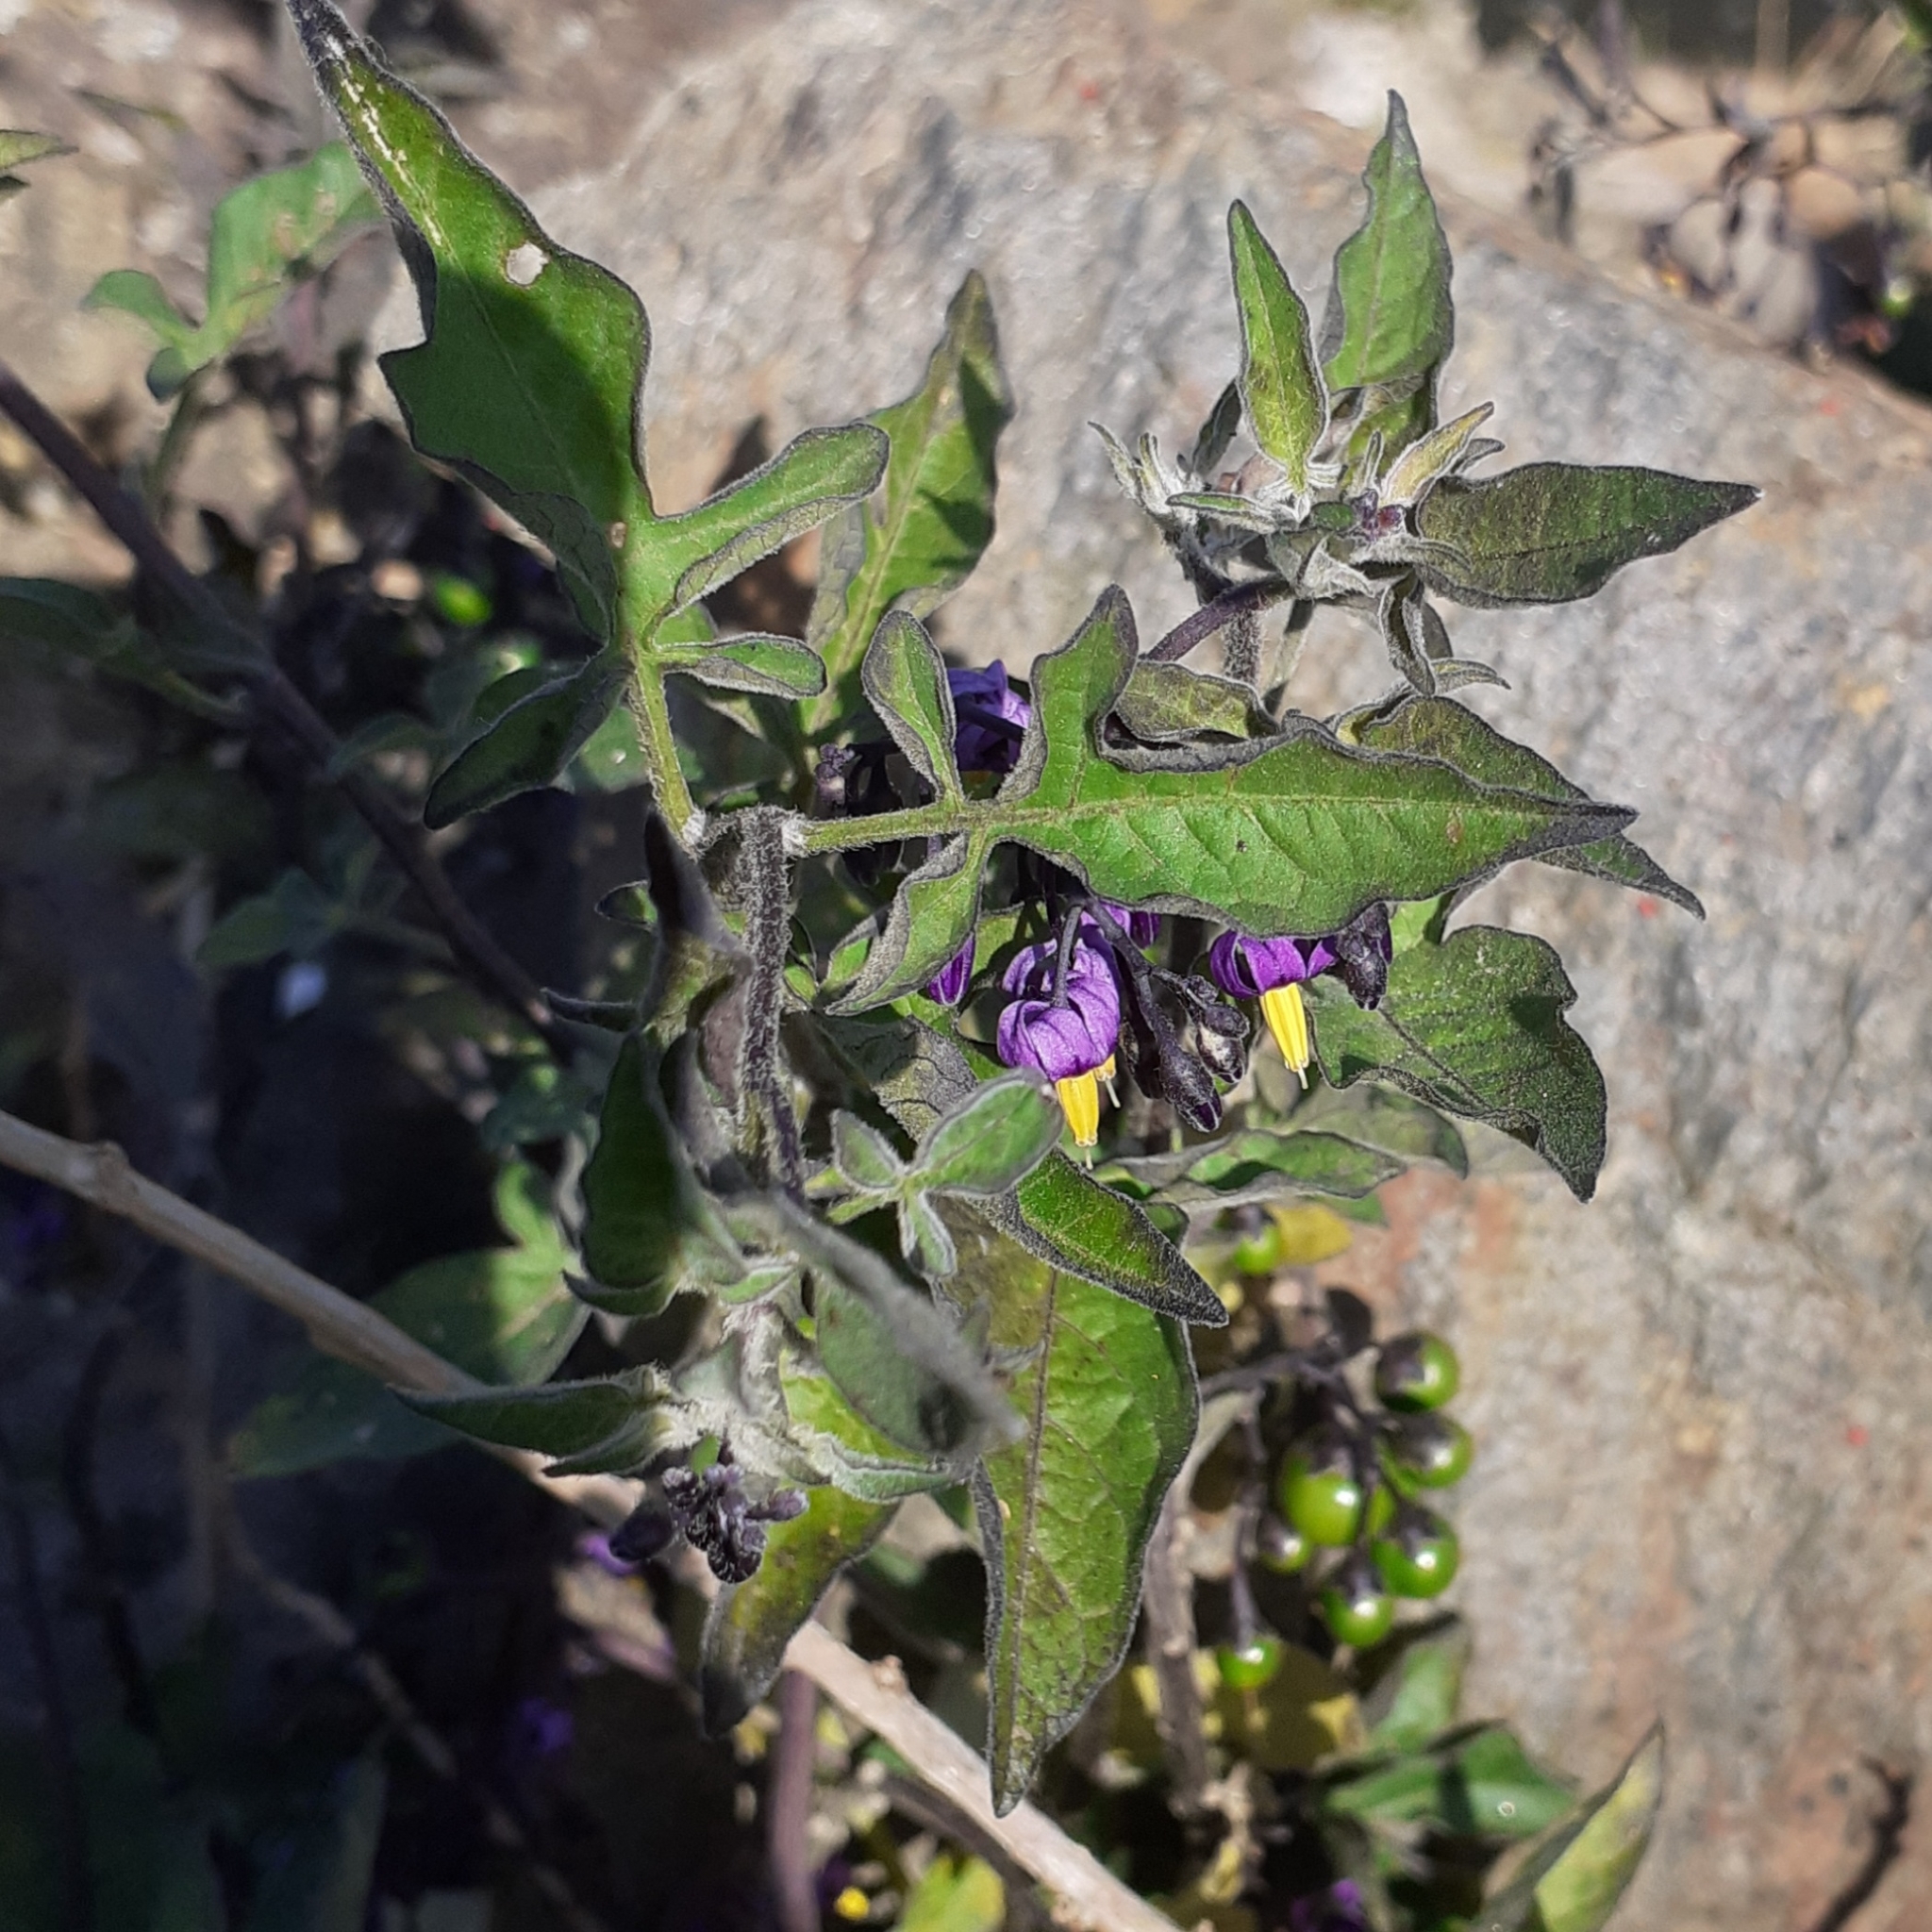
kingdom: Plantae
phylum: Tracheophyta
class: Magnoliopsida
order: Solanales
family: Solanaceae
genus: Solanum
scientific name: Solanum dulcamara
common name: Climbing nightshade
